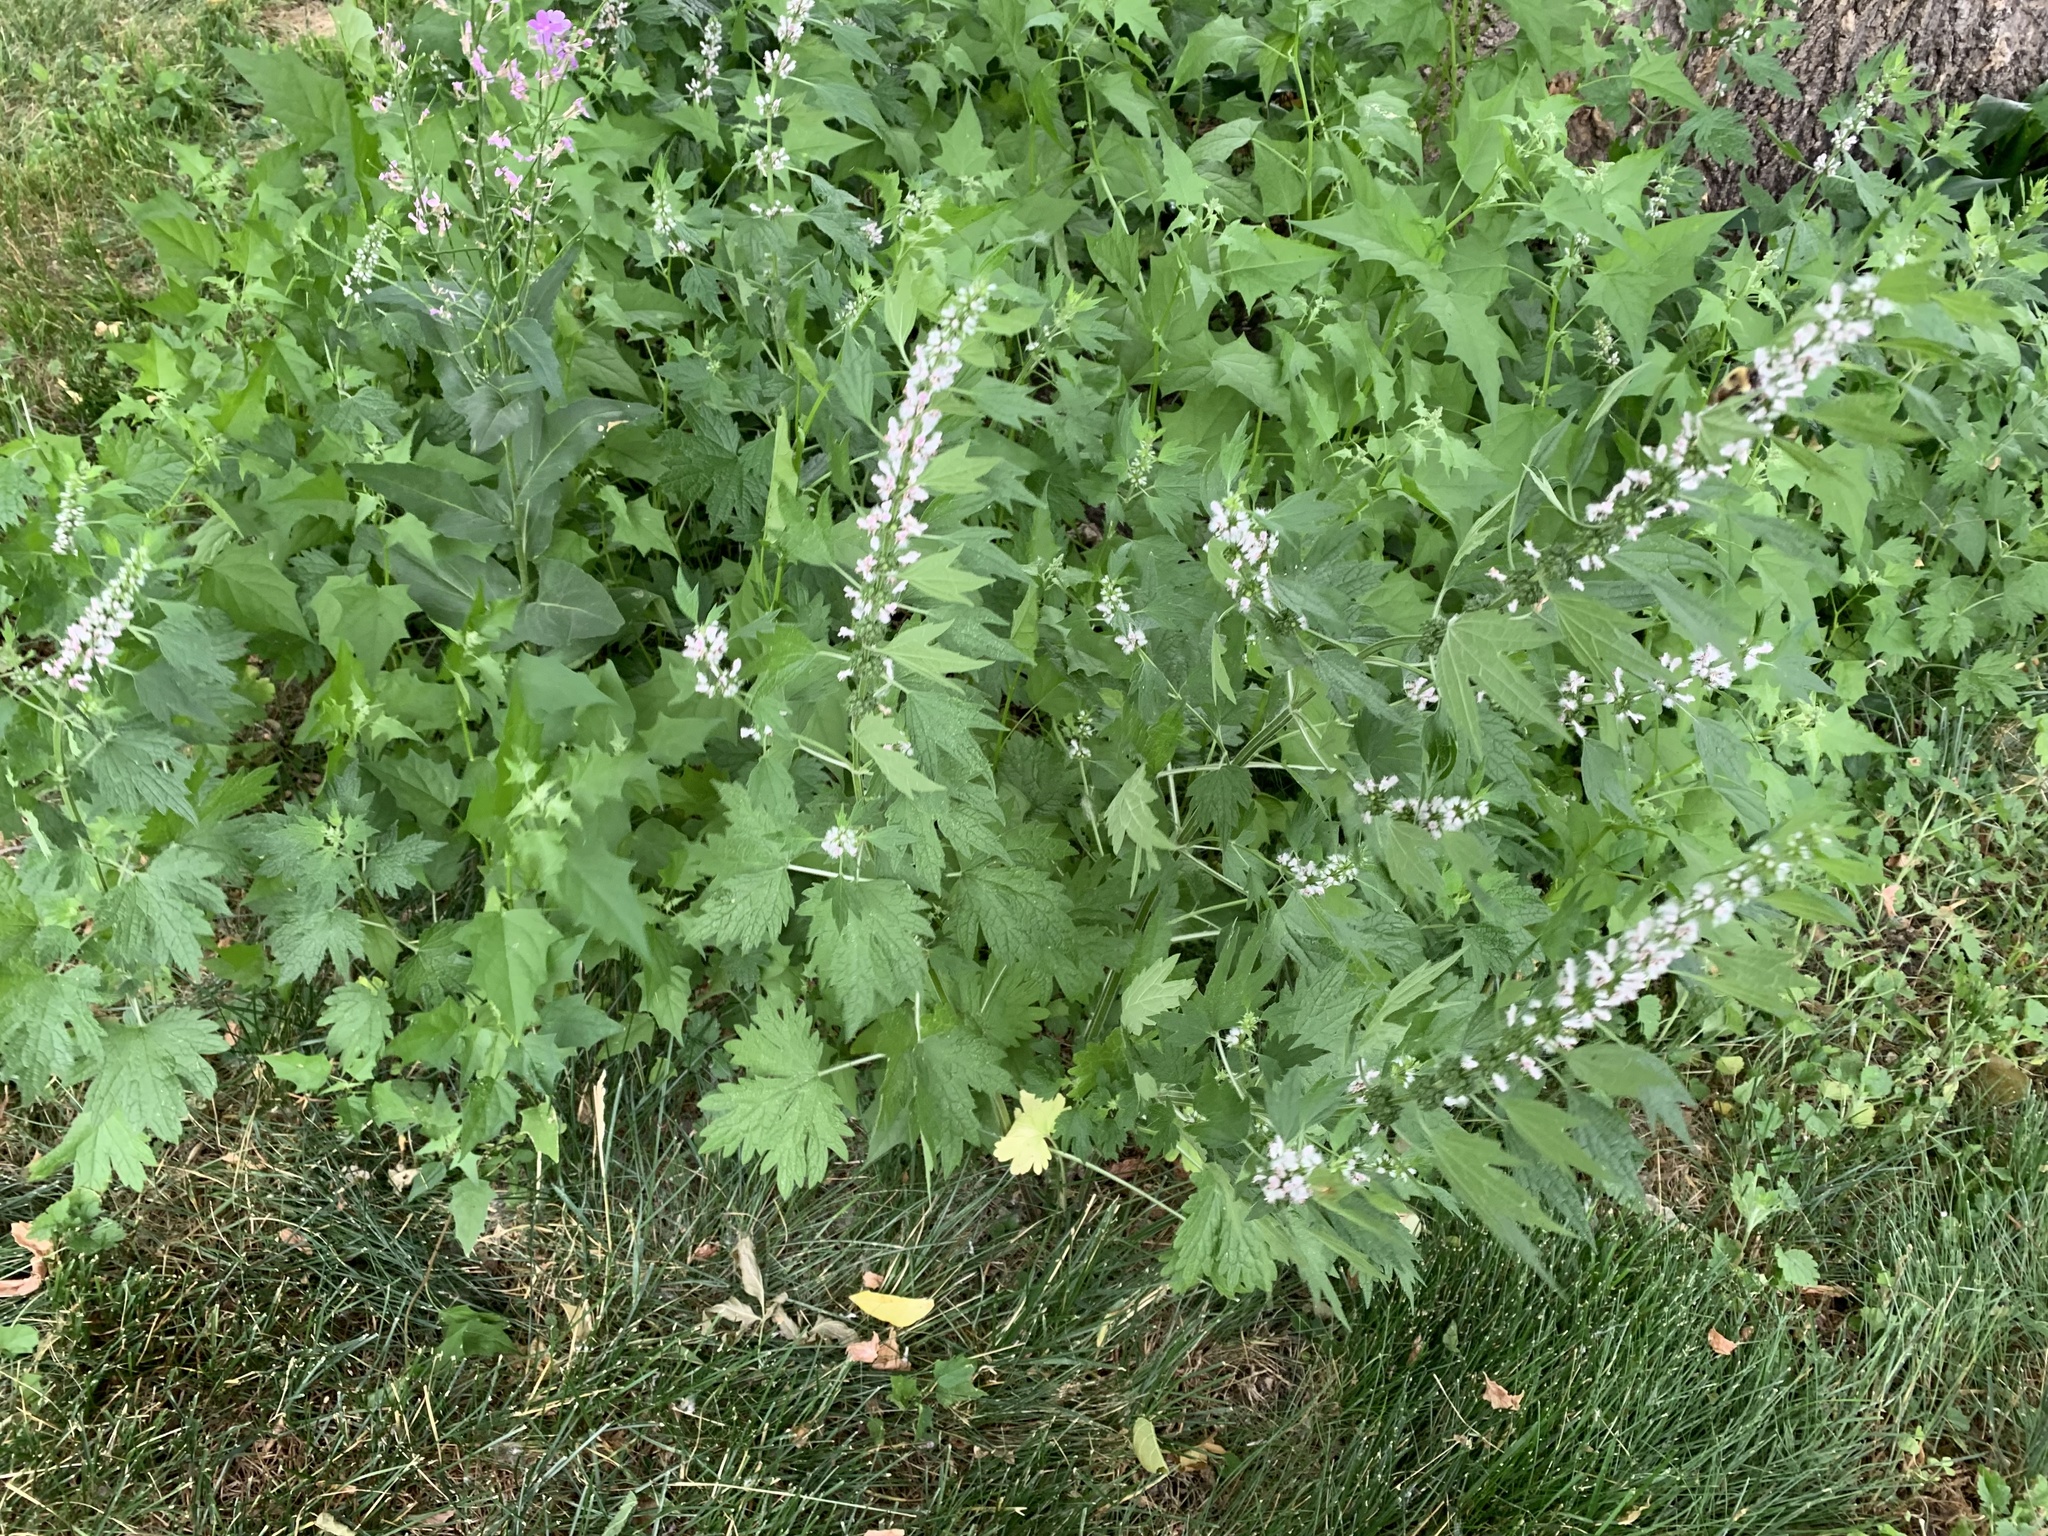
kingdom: Plantae
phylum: Tracheophyta
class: Magnoliopsida
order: Lamiales
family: Lamiaceae
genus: Leonurus
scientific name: Leonurus cardiaca
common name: Motherwort
